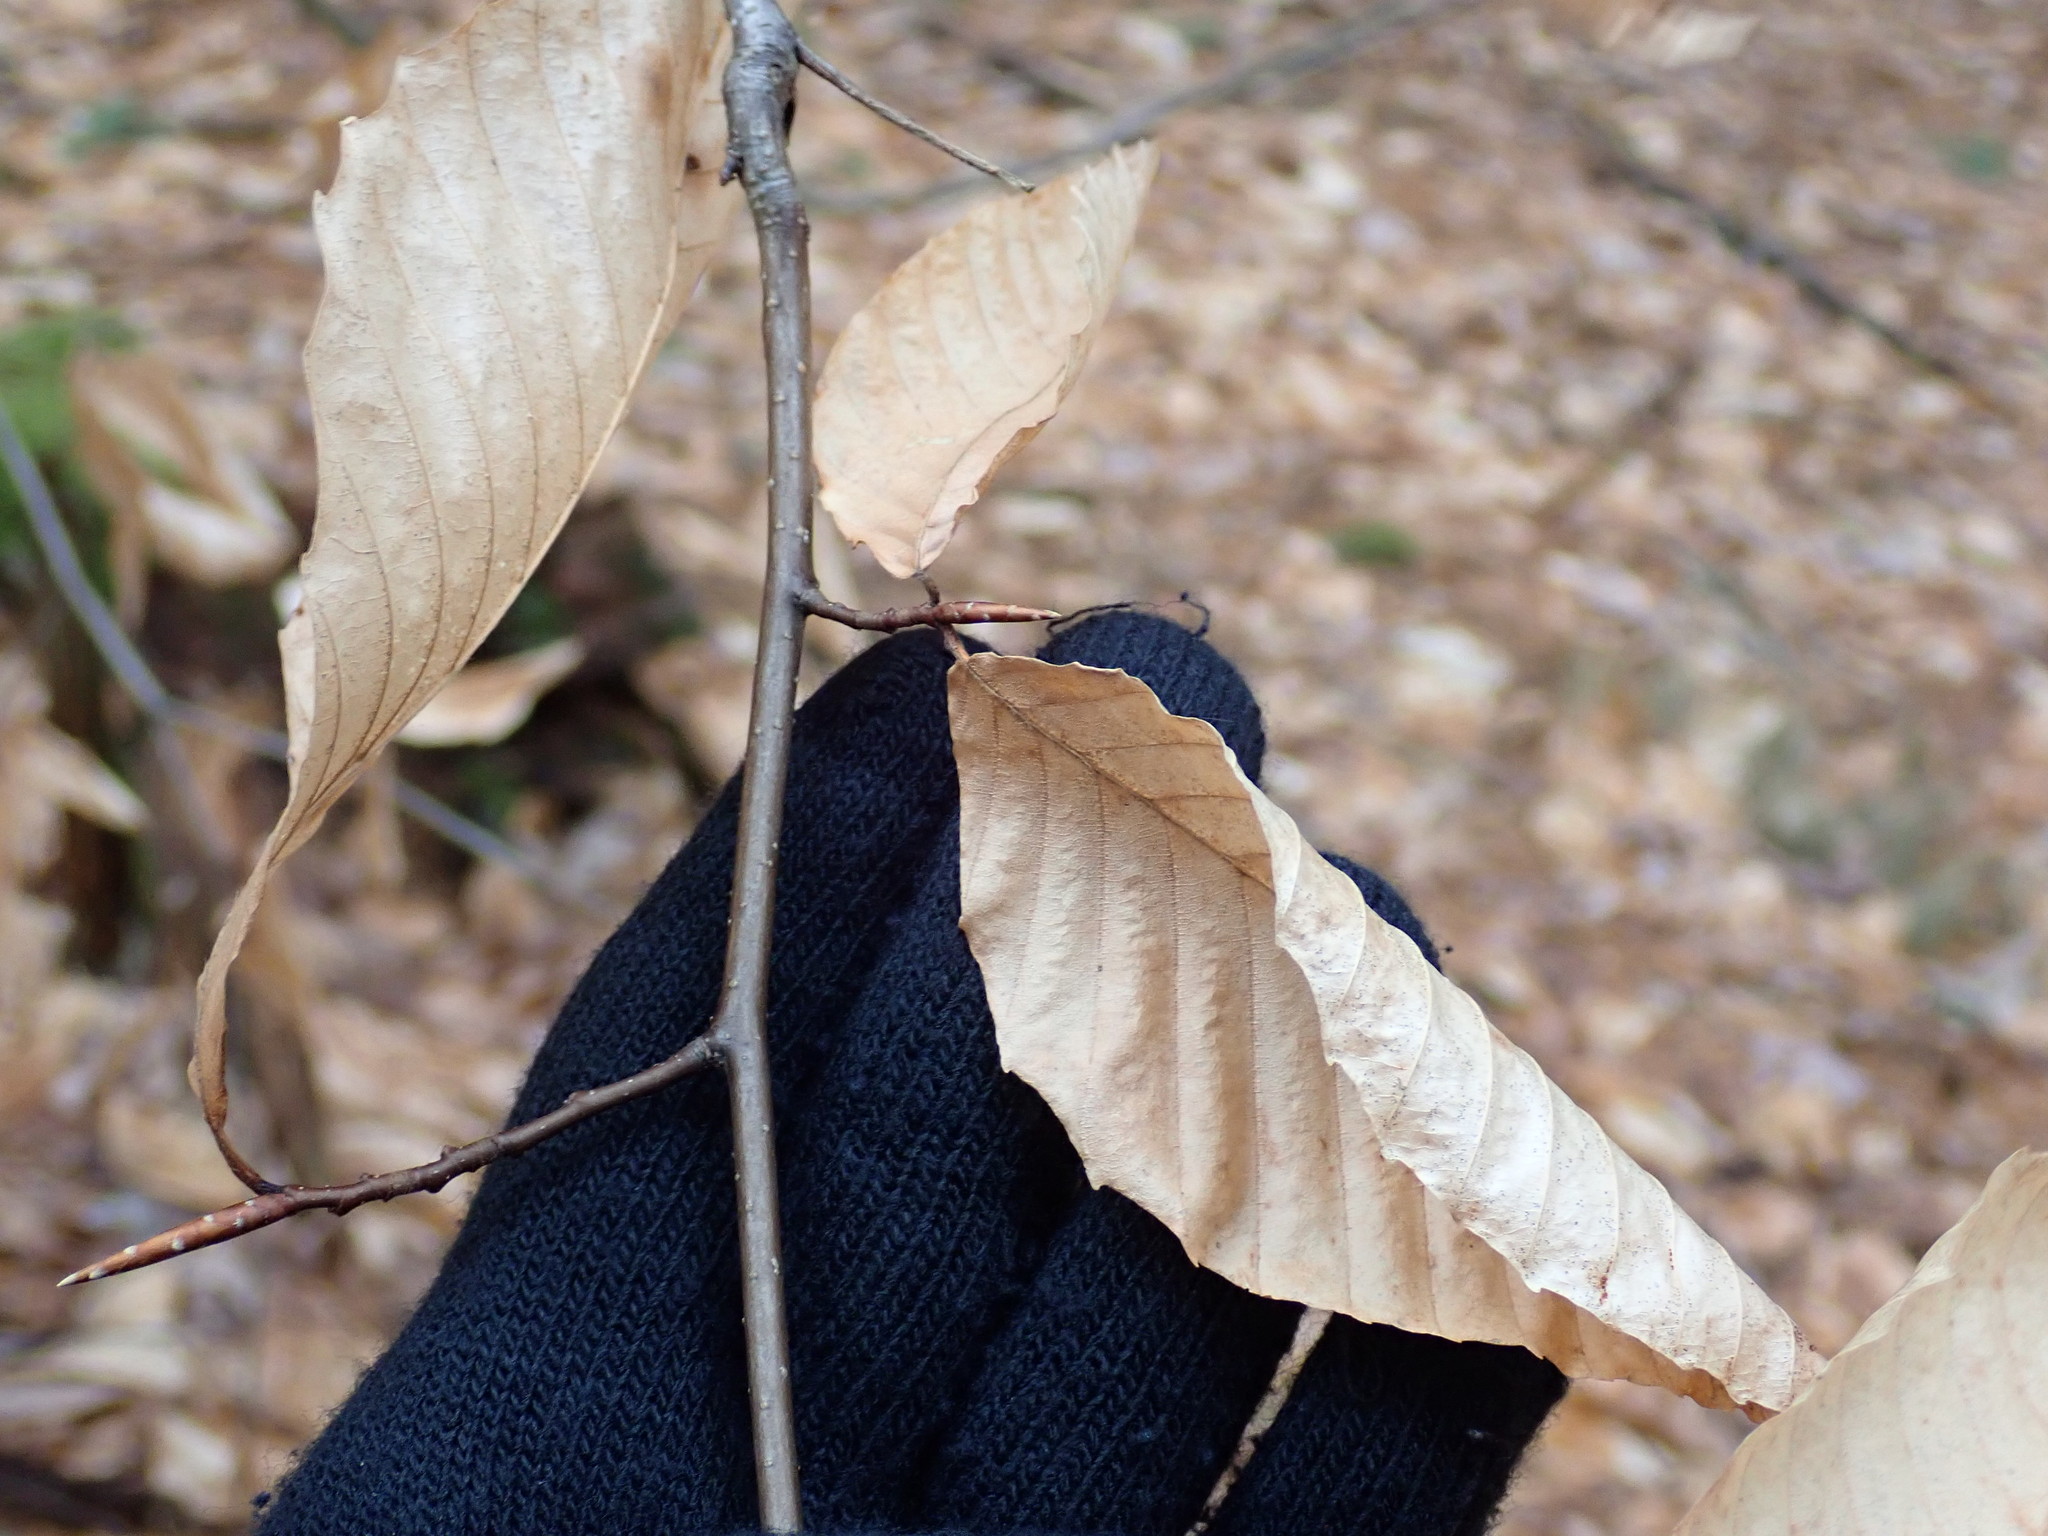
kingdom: Plantae
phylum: Tracheophyta
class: Magnoliopsida
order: Fagales
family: Fagaceae
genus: Fagus
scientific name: Fagus grandifolia
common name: American beech
